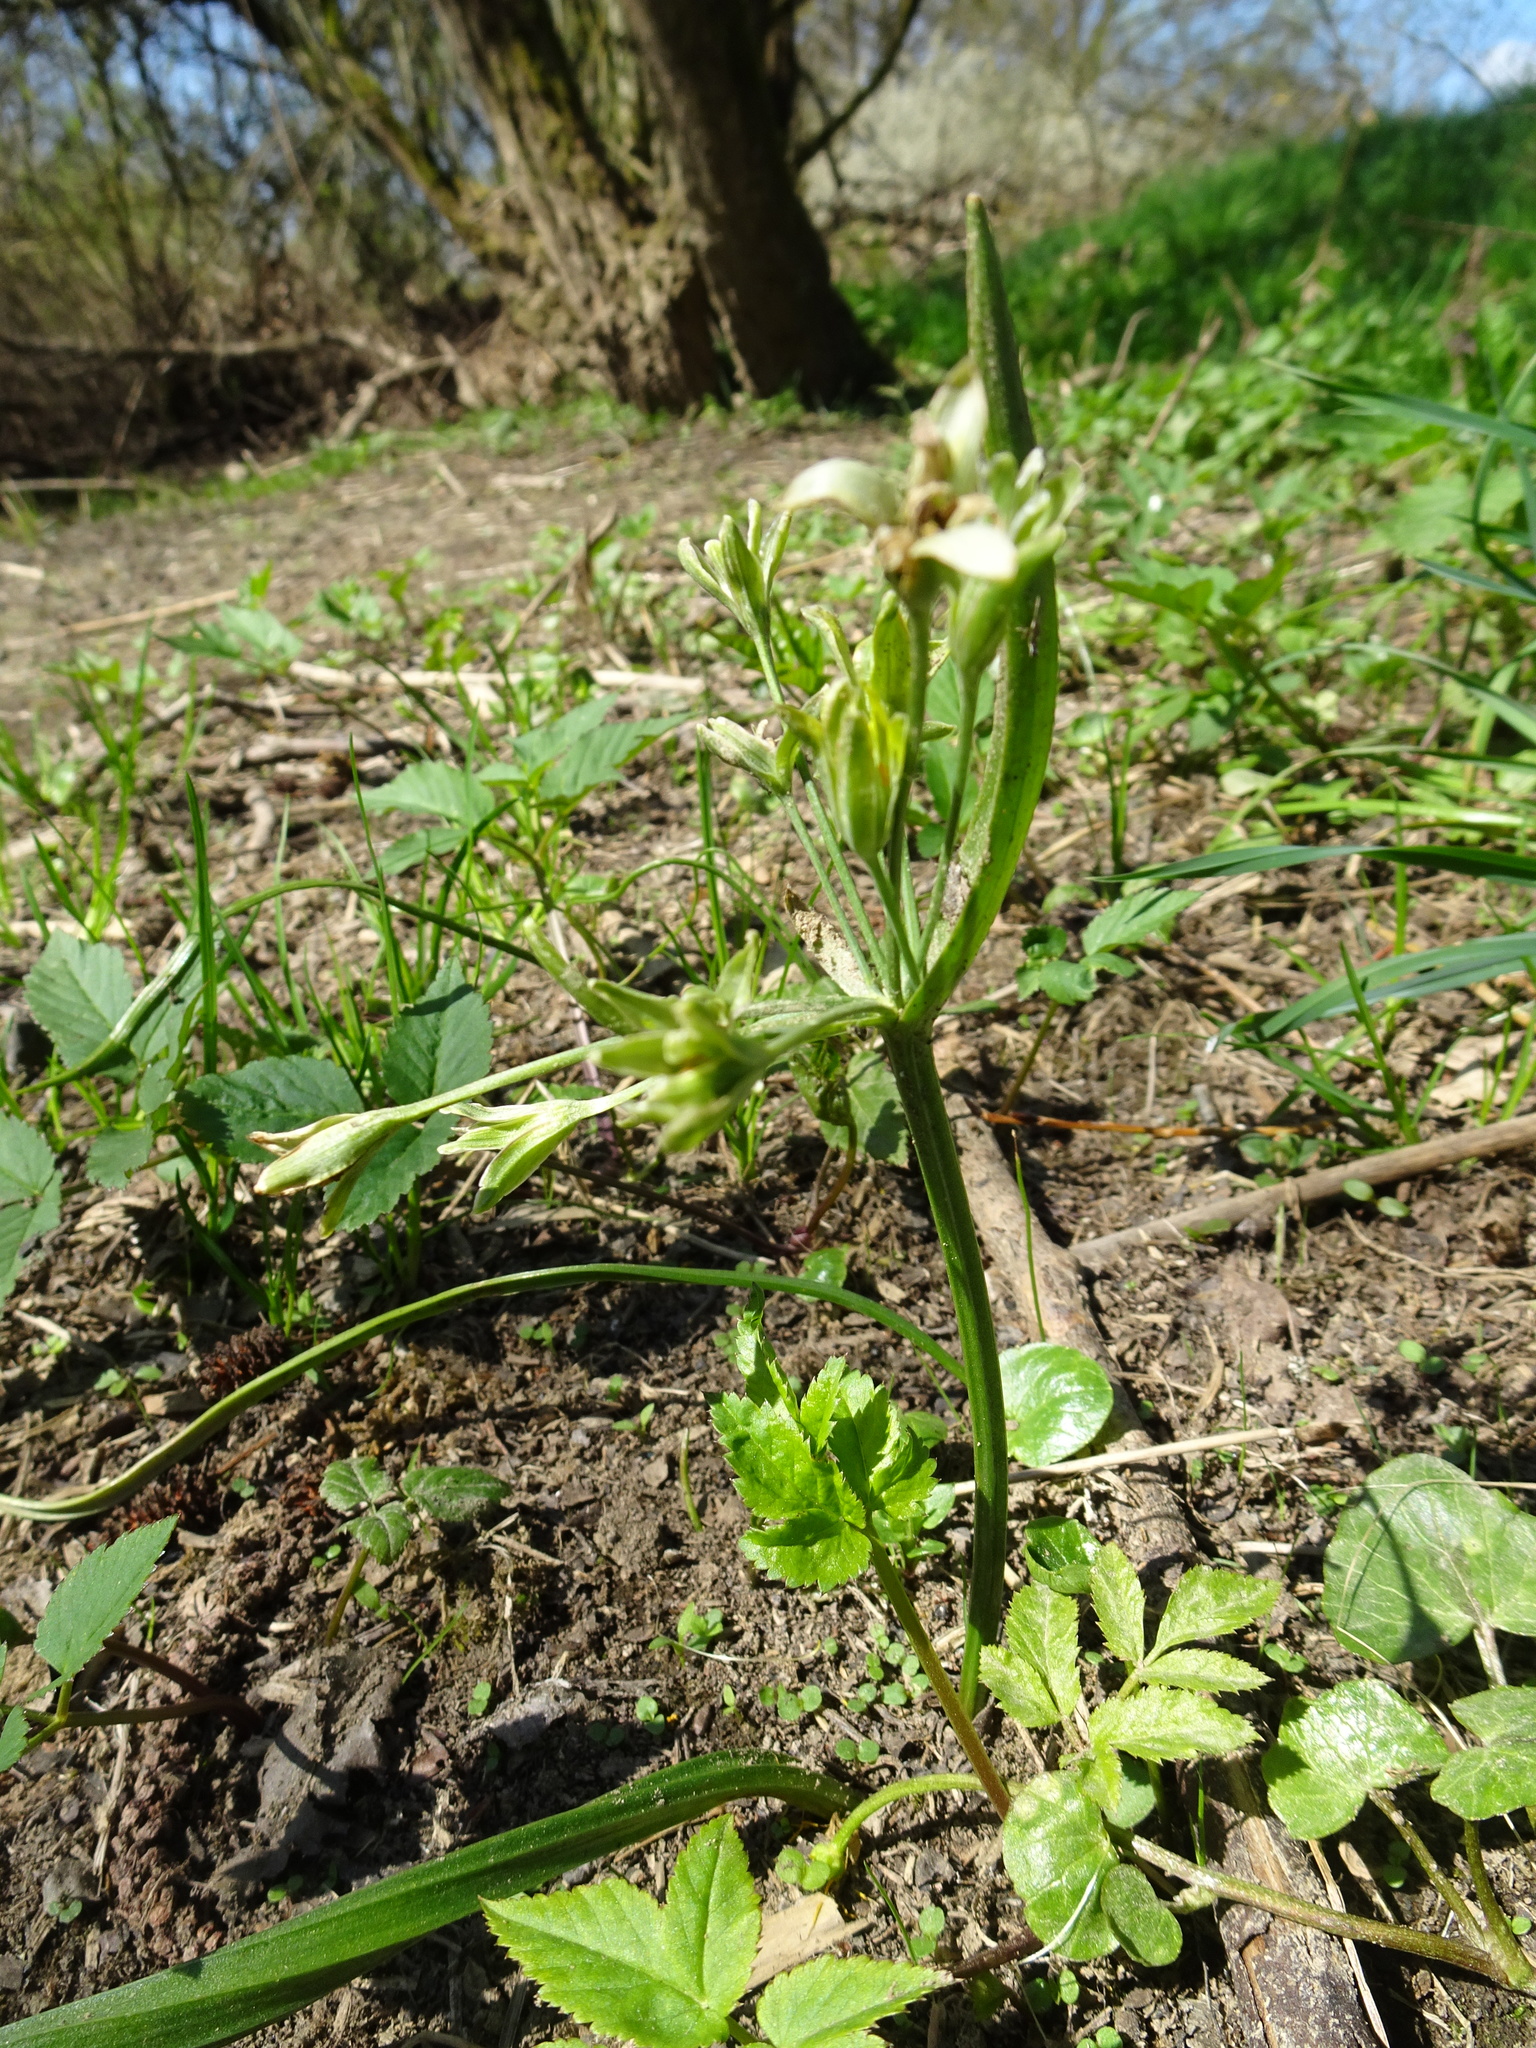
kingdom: Plantae
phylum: Tracheophyta
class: Liliopsida
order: Liliales
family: Liliaceae
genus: Gagea
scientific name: Gagea lutea
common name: Yellow star-of-bethlehem
